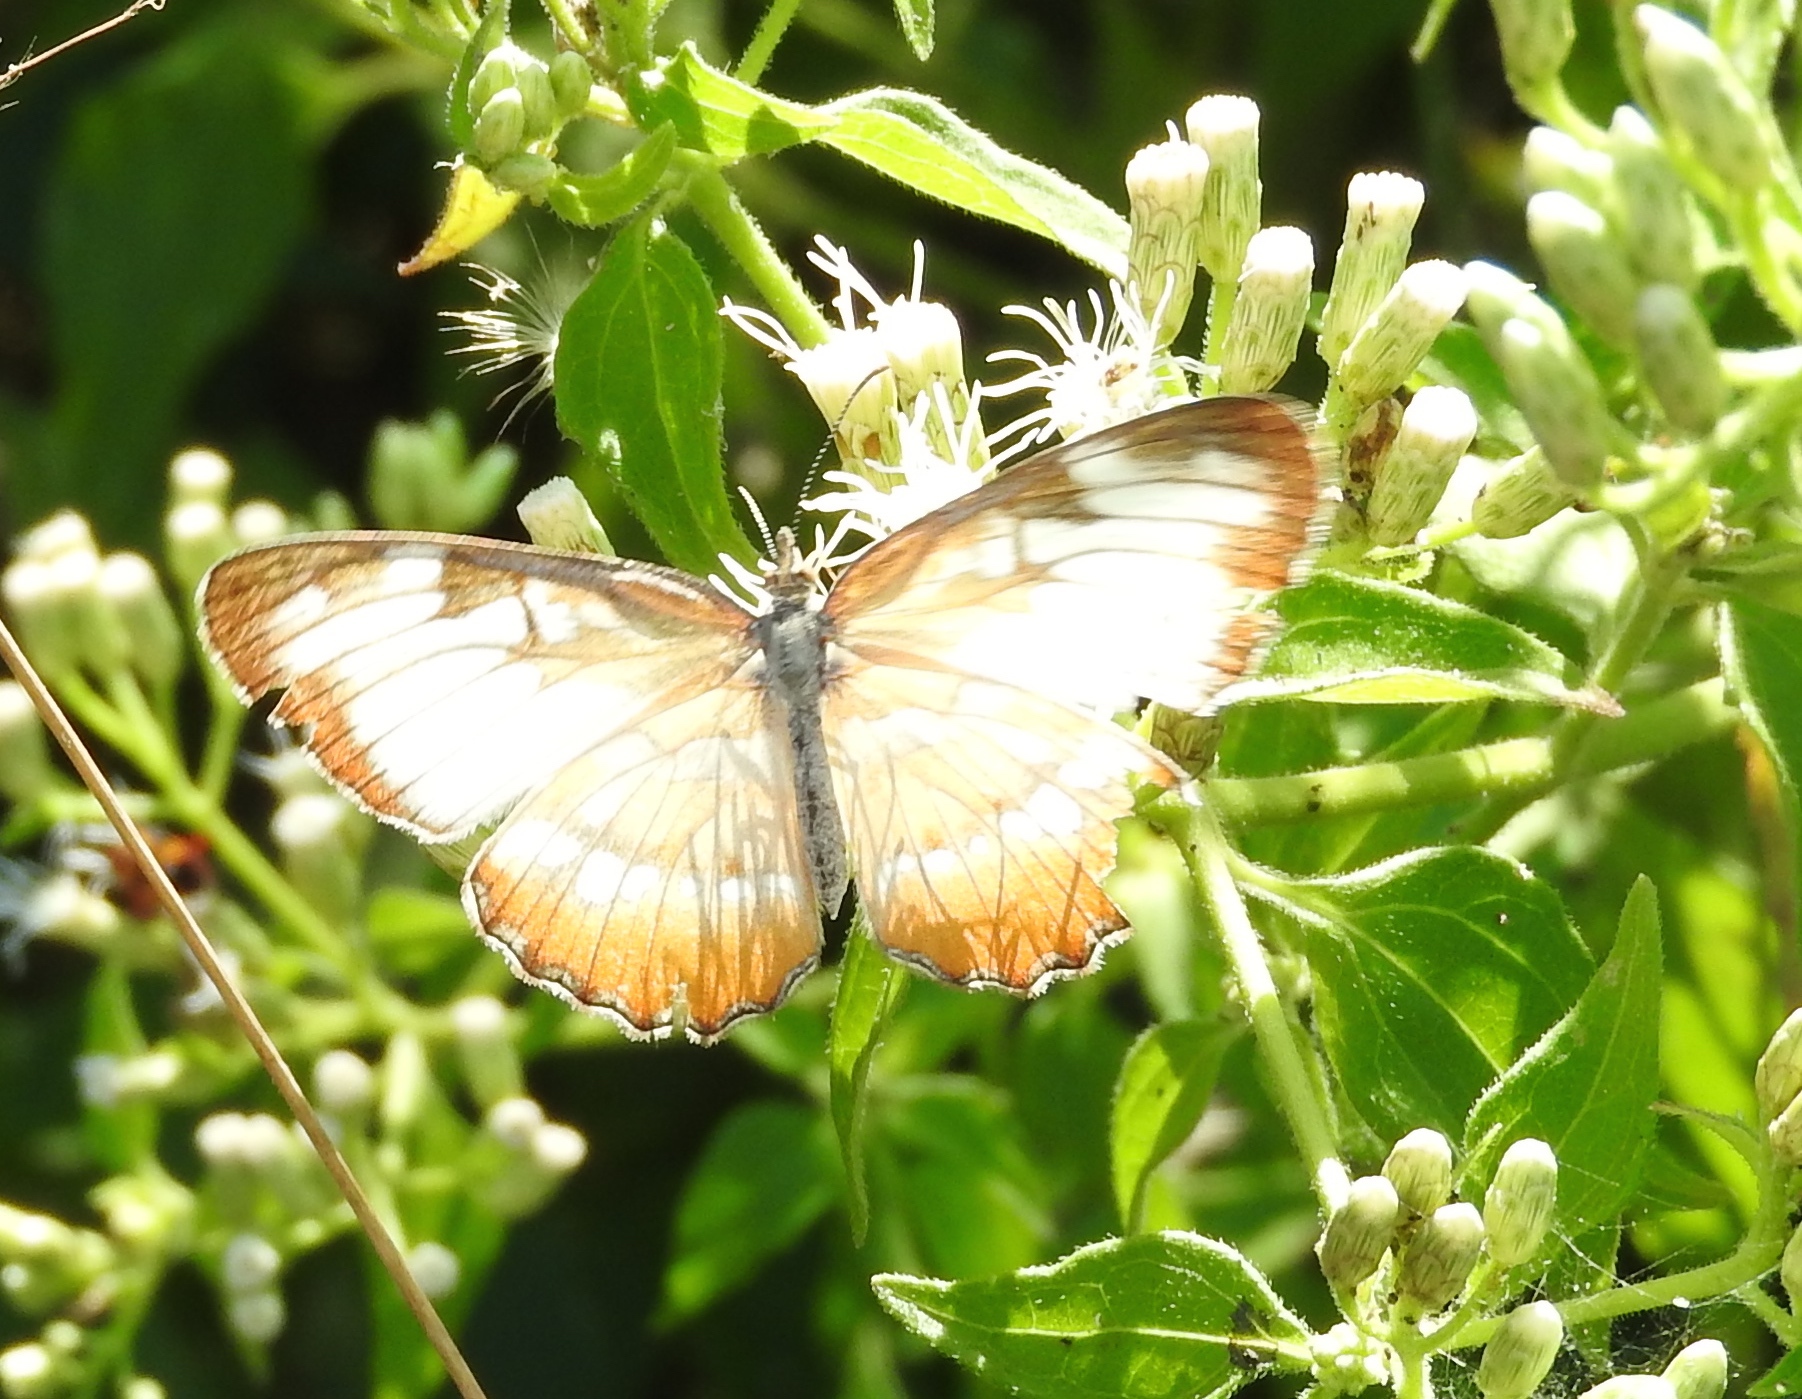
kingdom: Animalia
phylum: Arthropoda
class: Insecta
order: Lepidoptera
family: Nymphalidae
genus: Mestra
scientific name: Mestra amymone
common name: Common mestra
